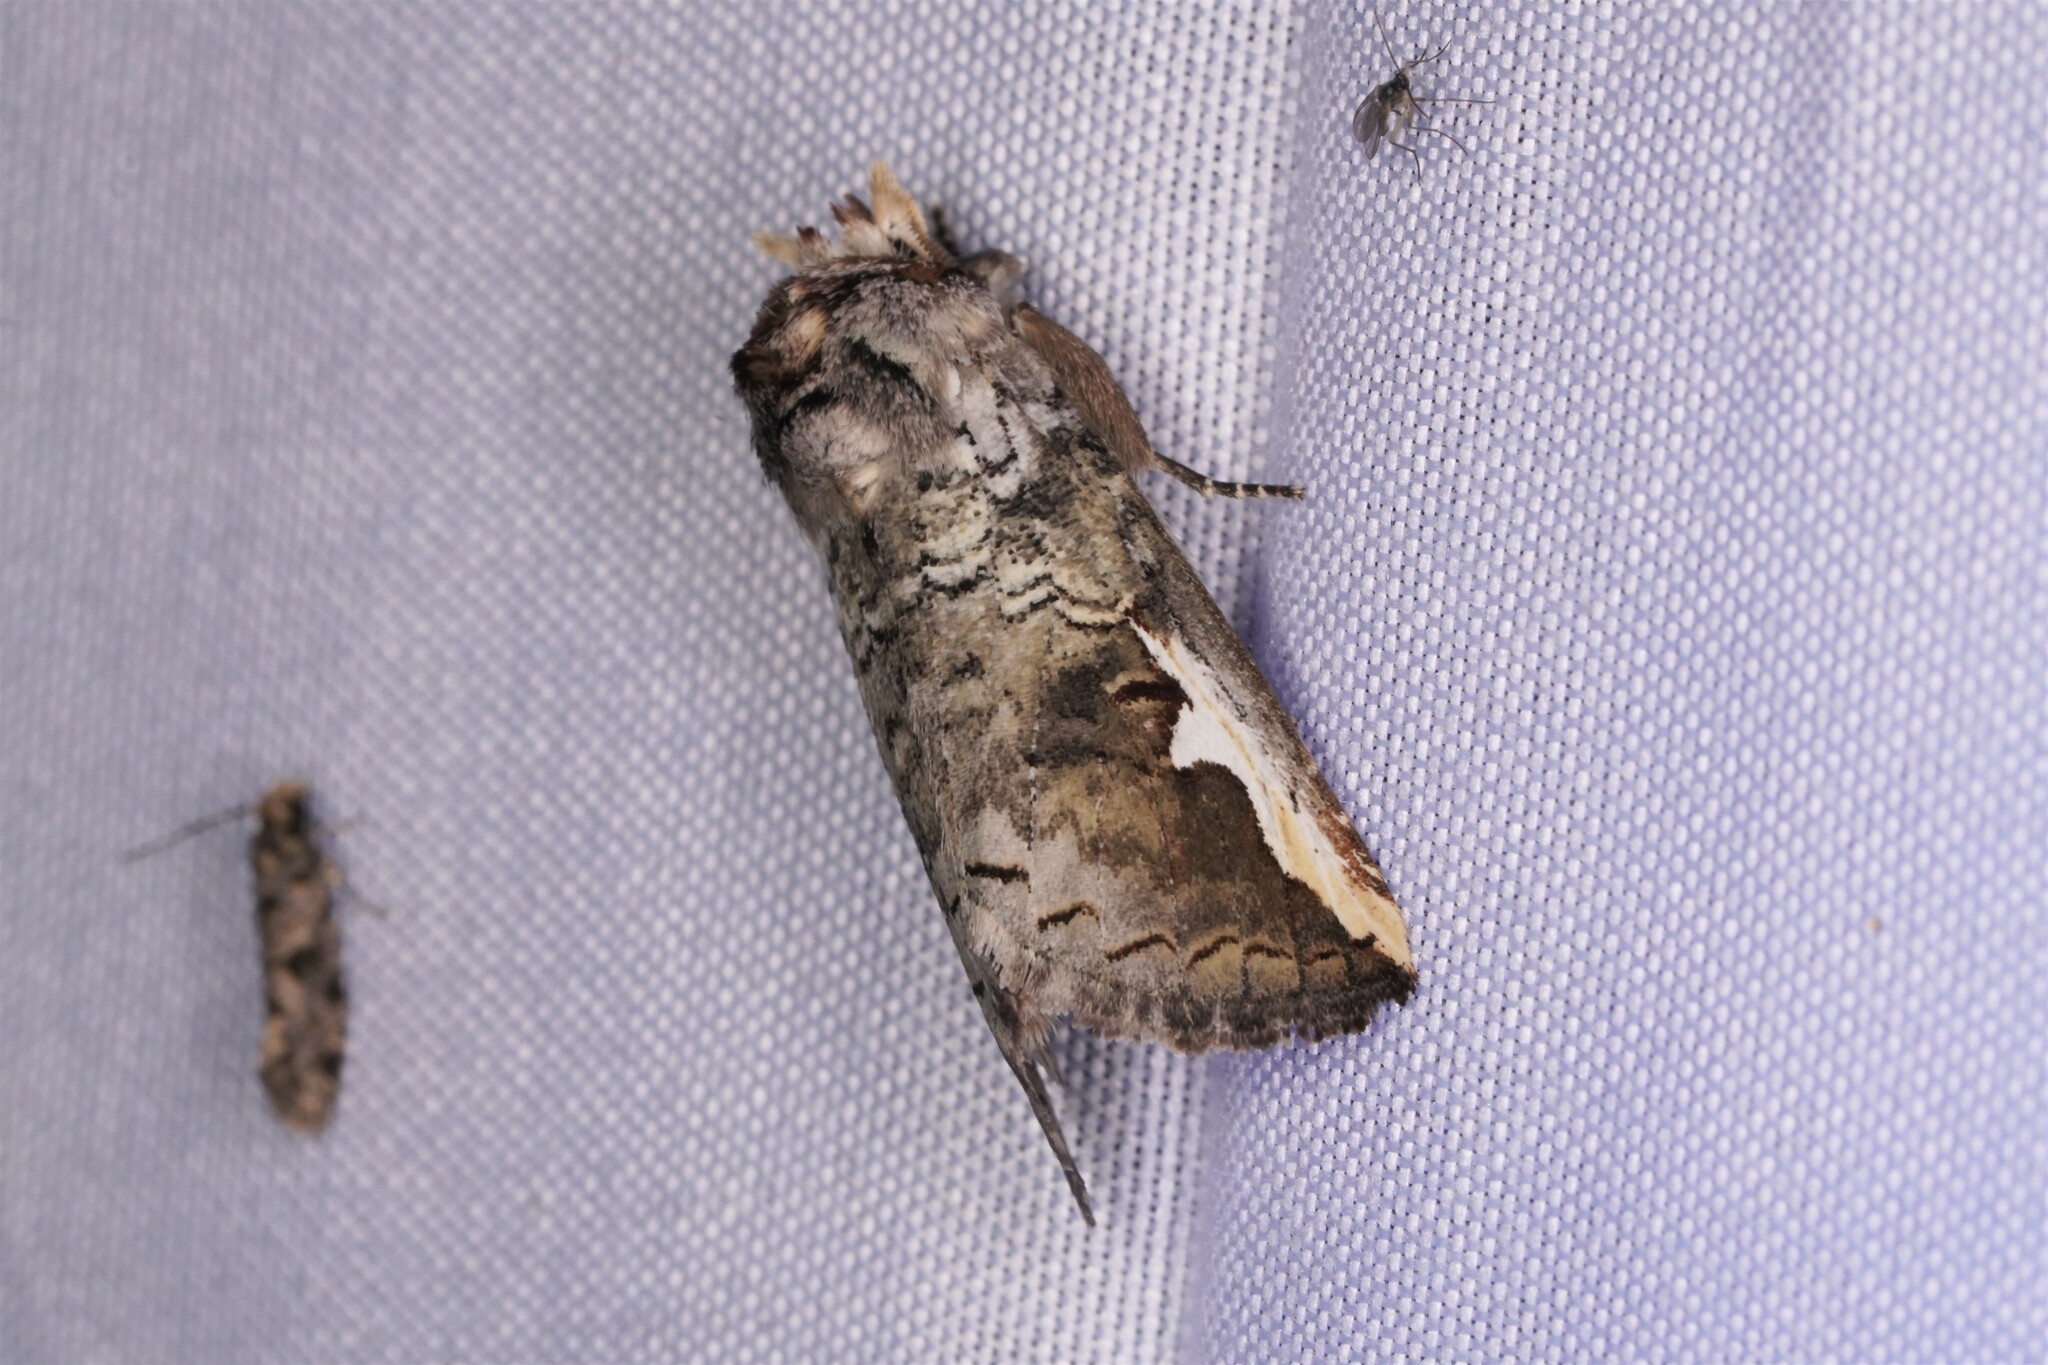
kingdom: Animalia
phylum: Arthropoda
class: Insecta
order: Lepidoptera
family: Notodontidae
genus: Symmerista
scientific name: Symmerista albifrons
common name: White-headed prominent
